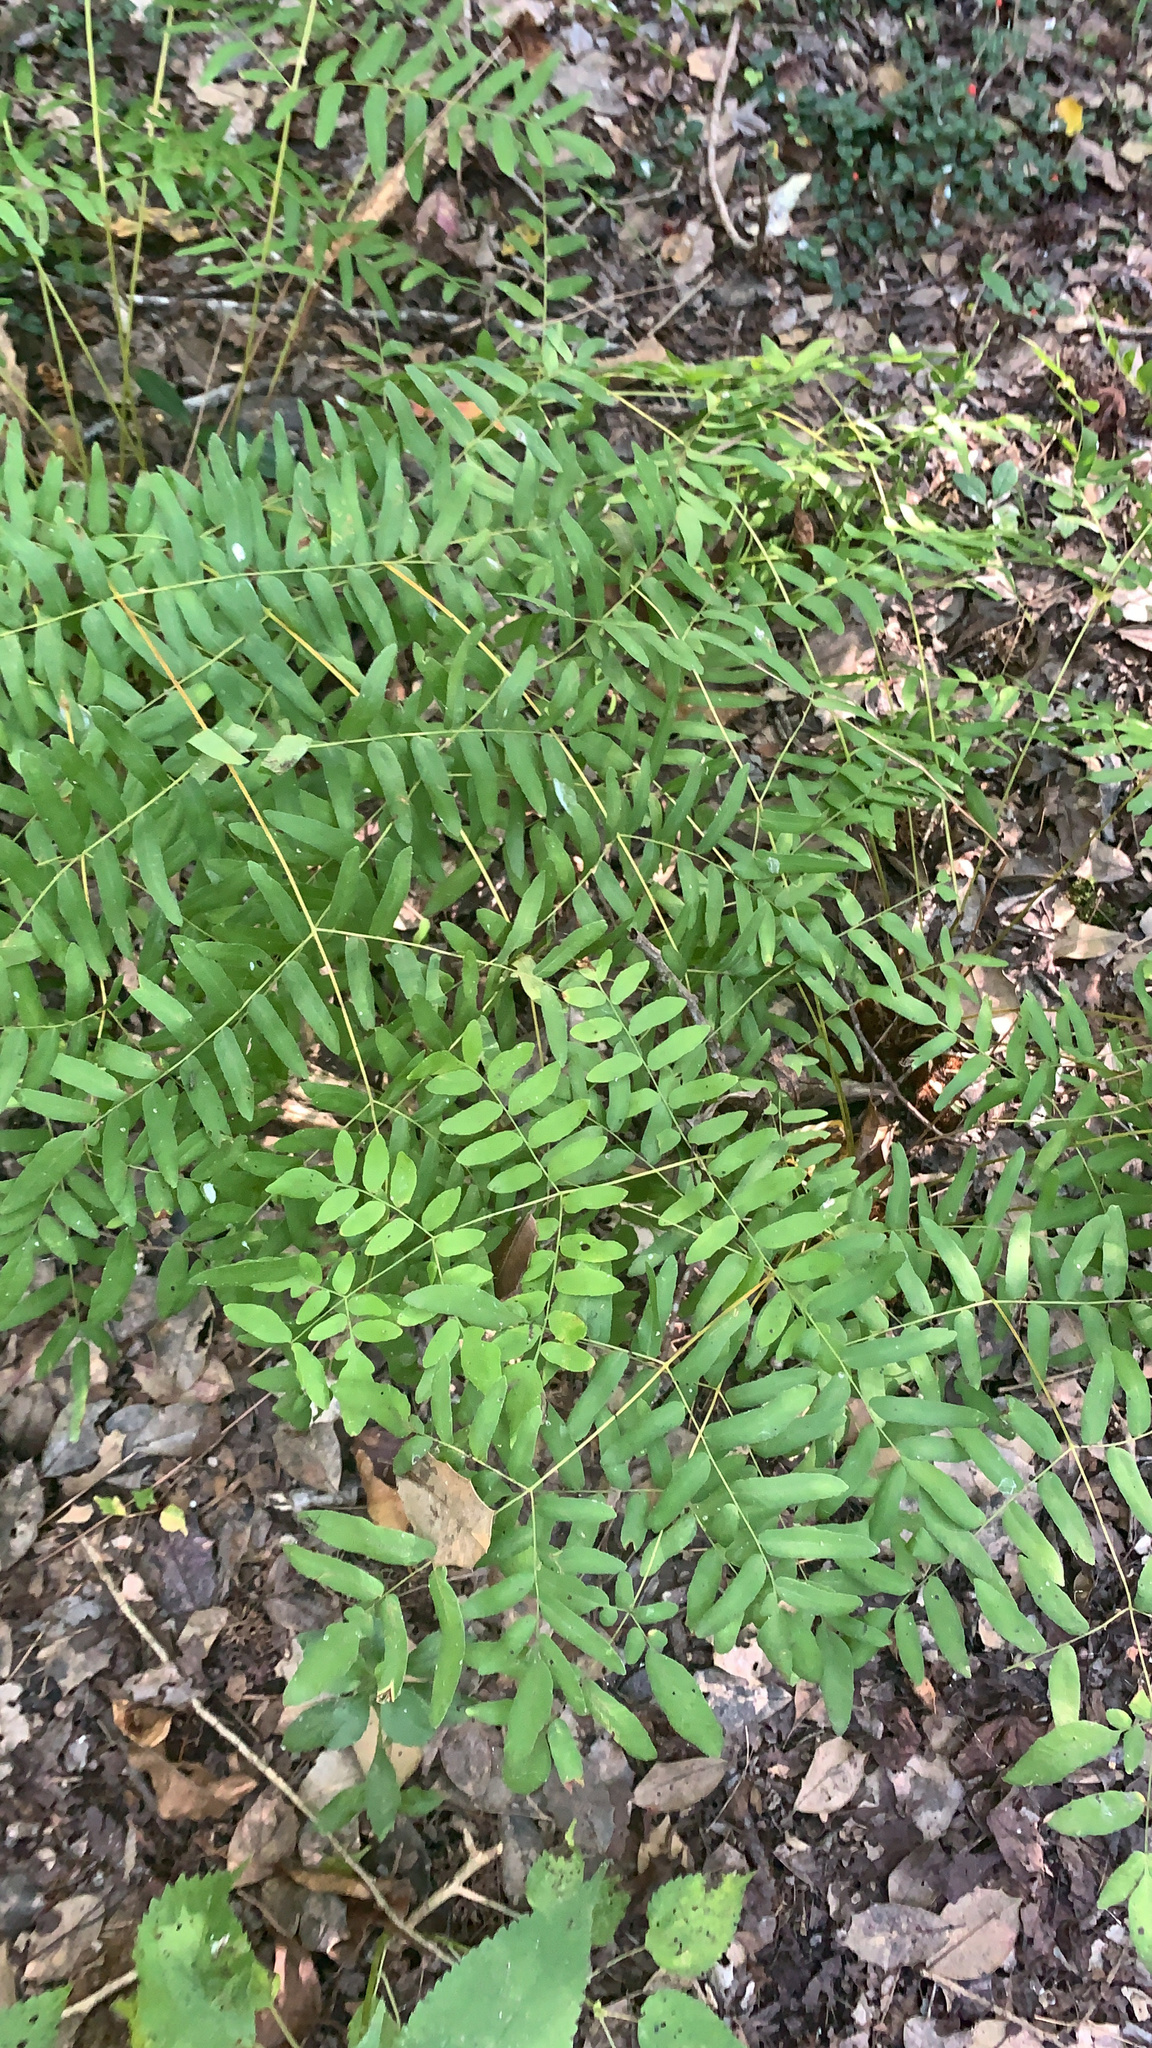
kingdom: Plantae
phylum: Tracheophyta
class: Polypodiopsida
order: Osmundales
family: Osmundaceae
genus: Osmunda
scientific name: Osmunda spectabilis
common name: American royal fern
